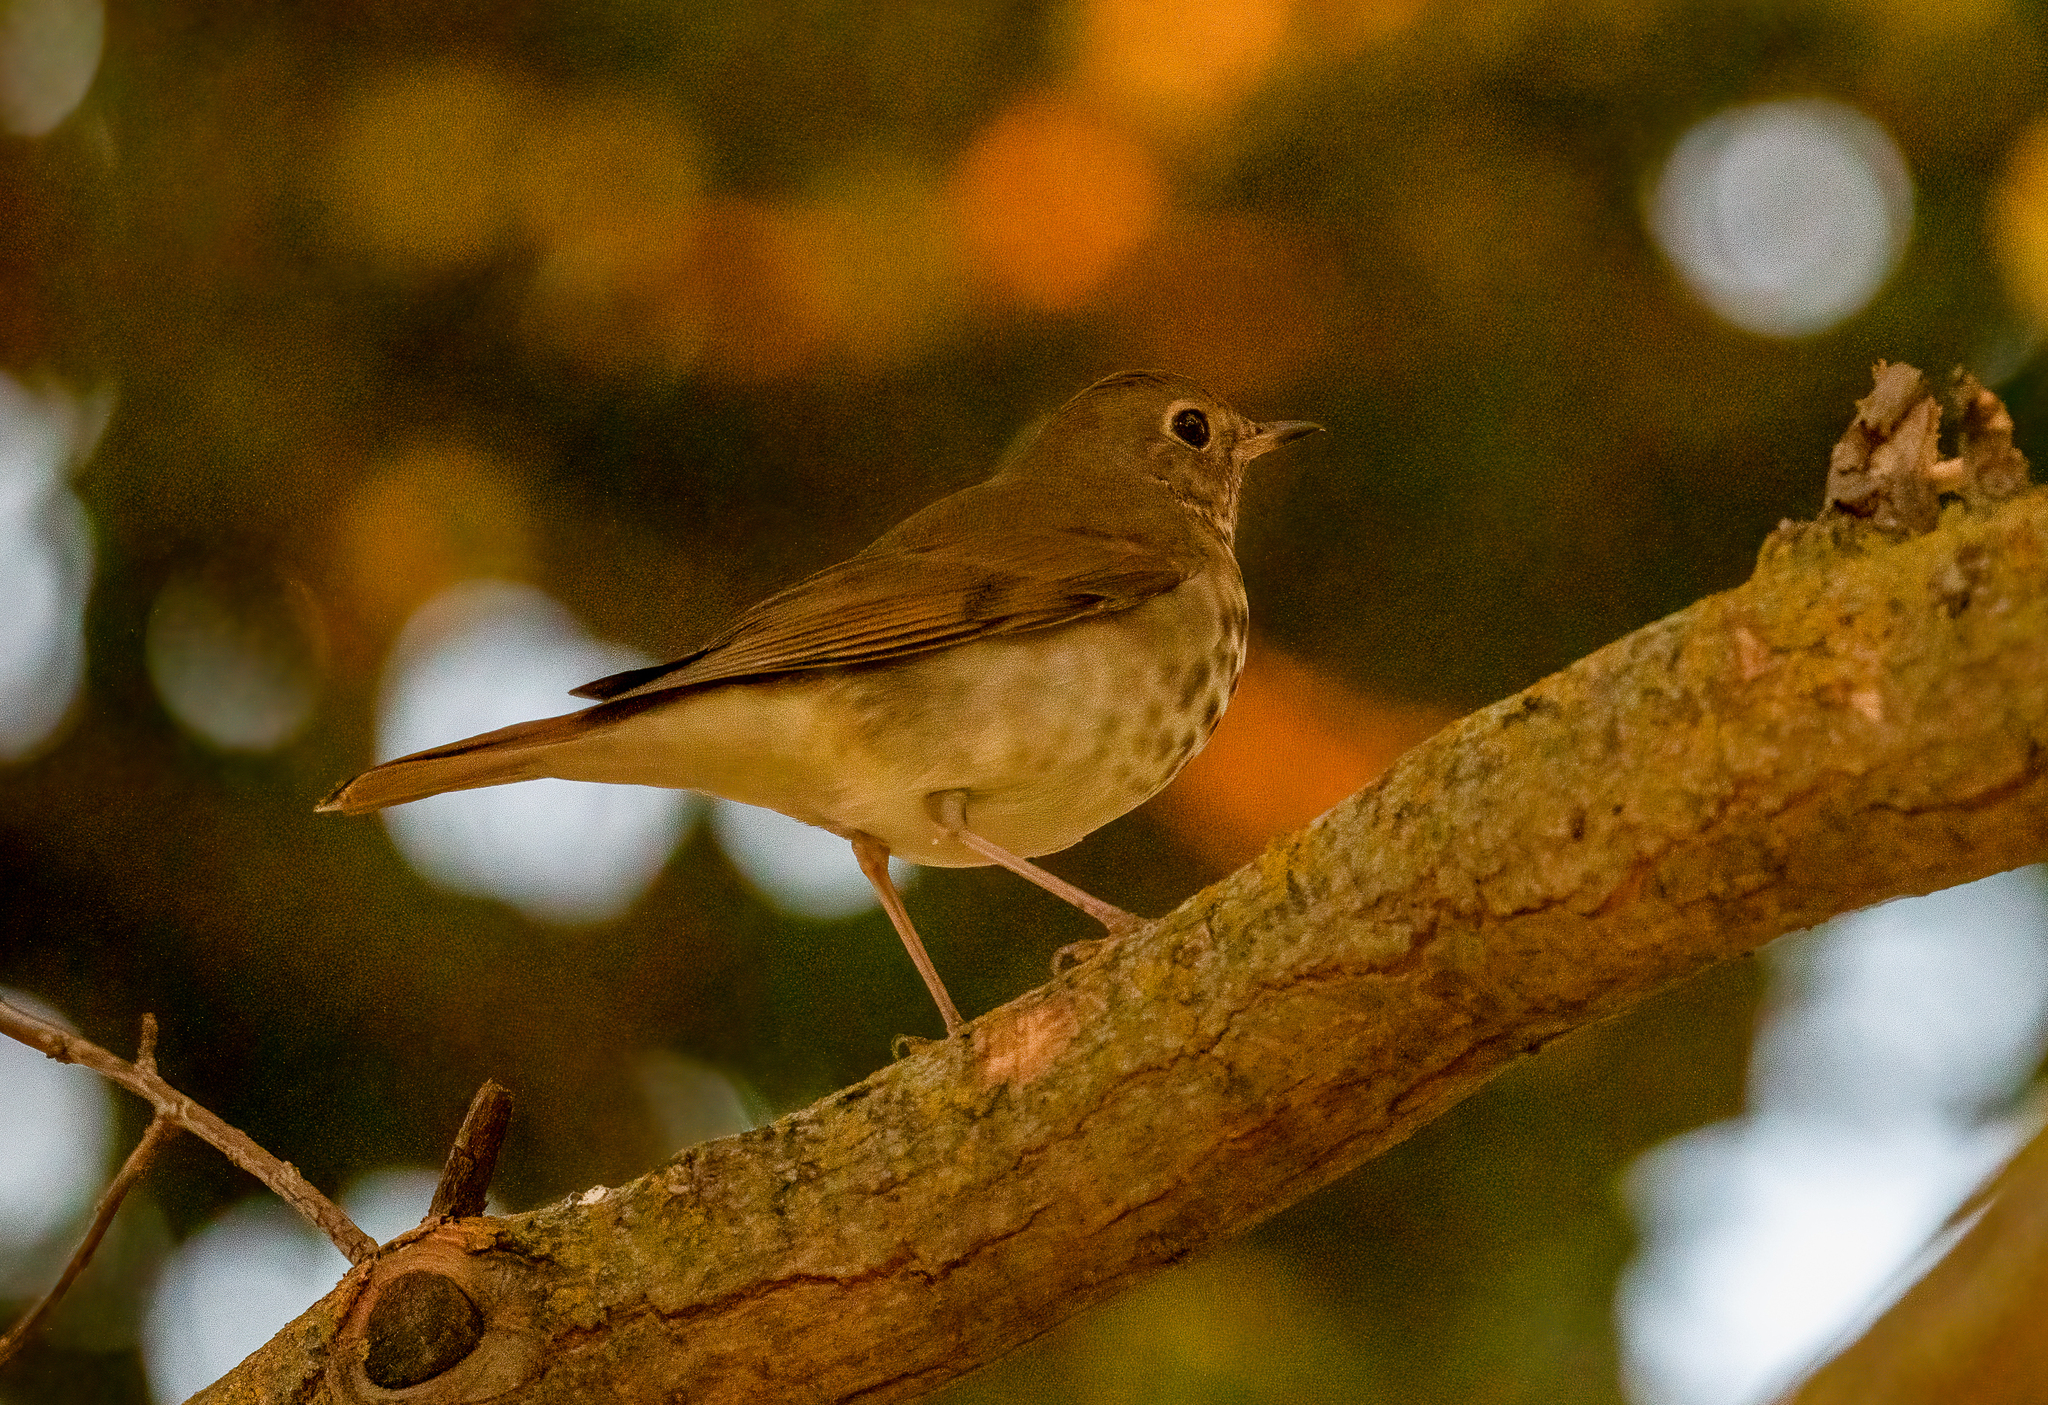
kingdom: Animalia
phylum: Chordata
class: Aves
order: Passeriformes
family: Turdidae
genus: Catharus
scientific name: Catharus guttatus
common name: Hermit thrush
